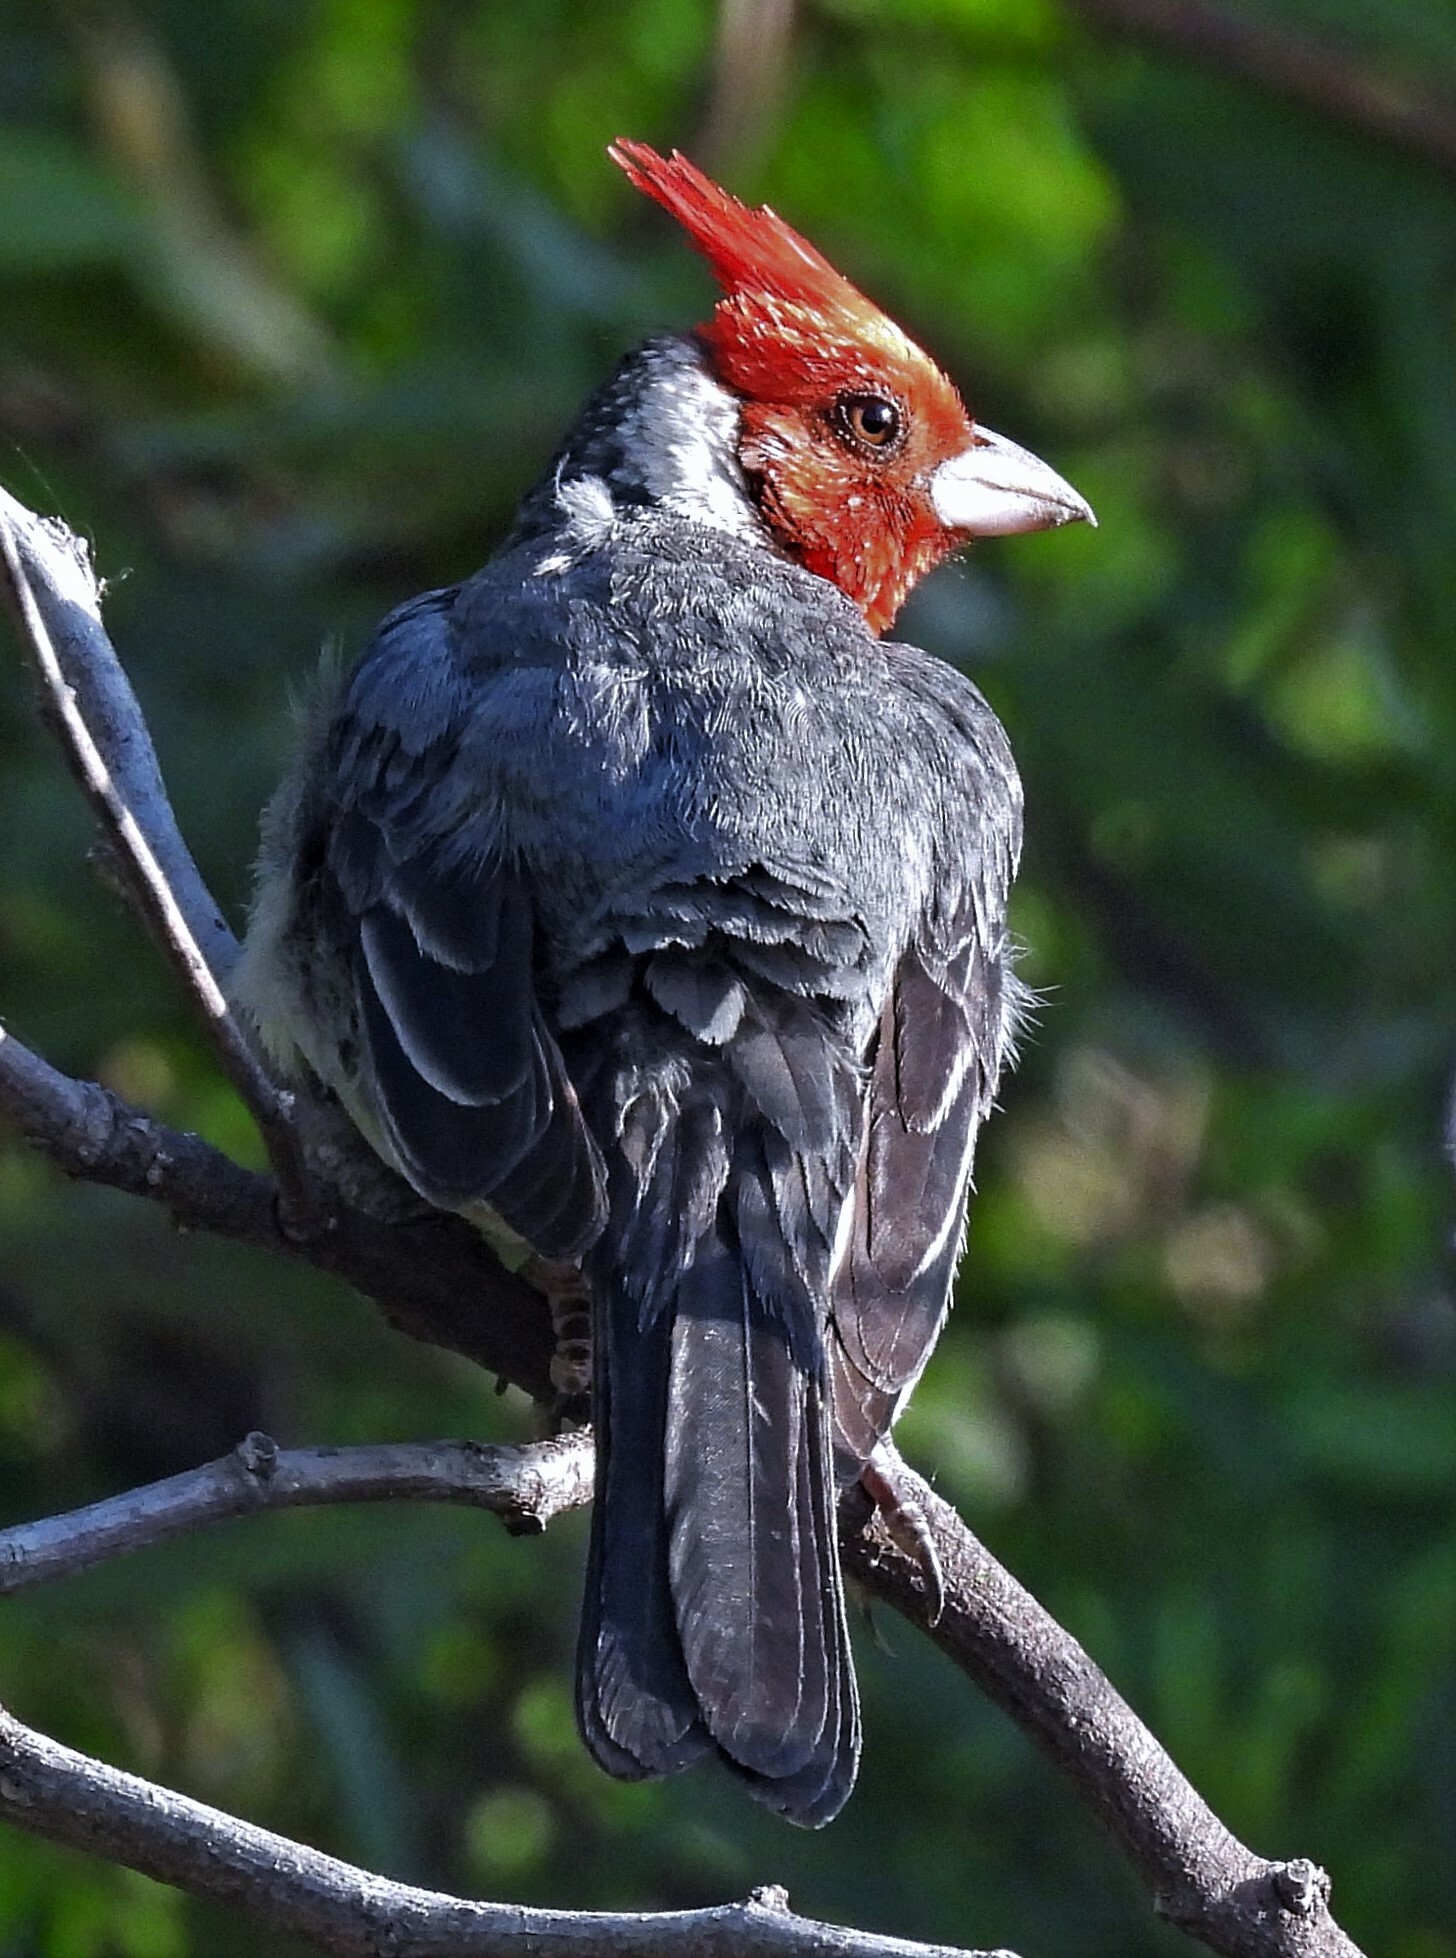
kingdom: Animalia
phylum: Chordata
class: Aves
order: Passeriformes
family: Thraupidae
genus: Paroaria
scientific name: Paroaria coronata
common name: Red-crested cardinal
